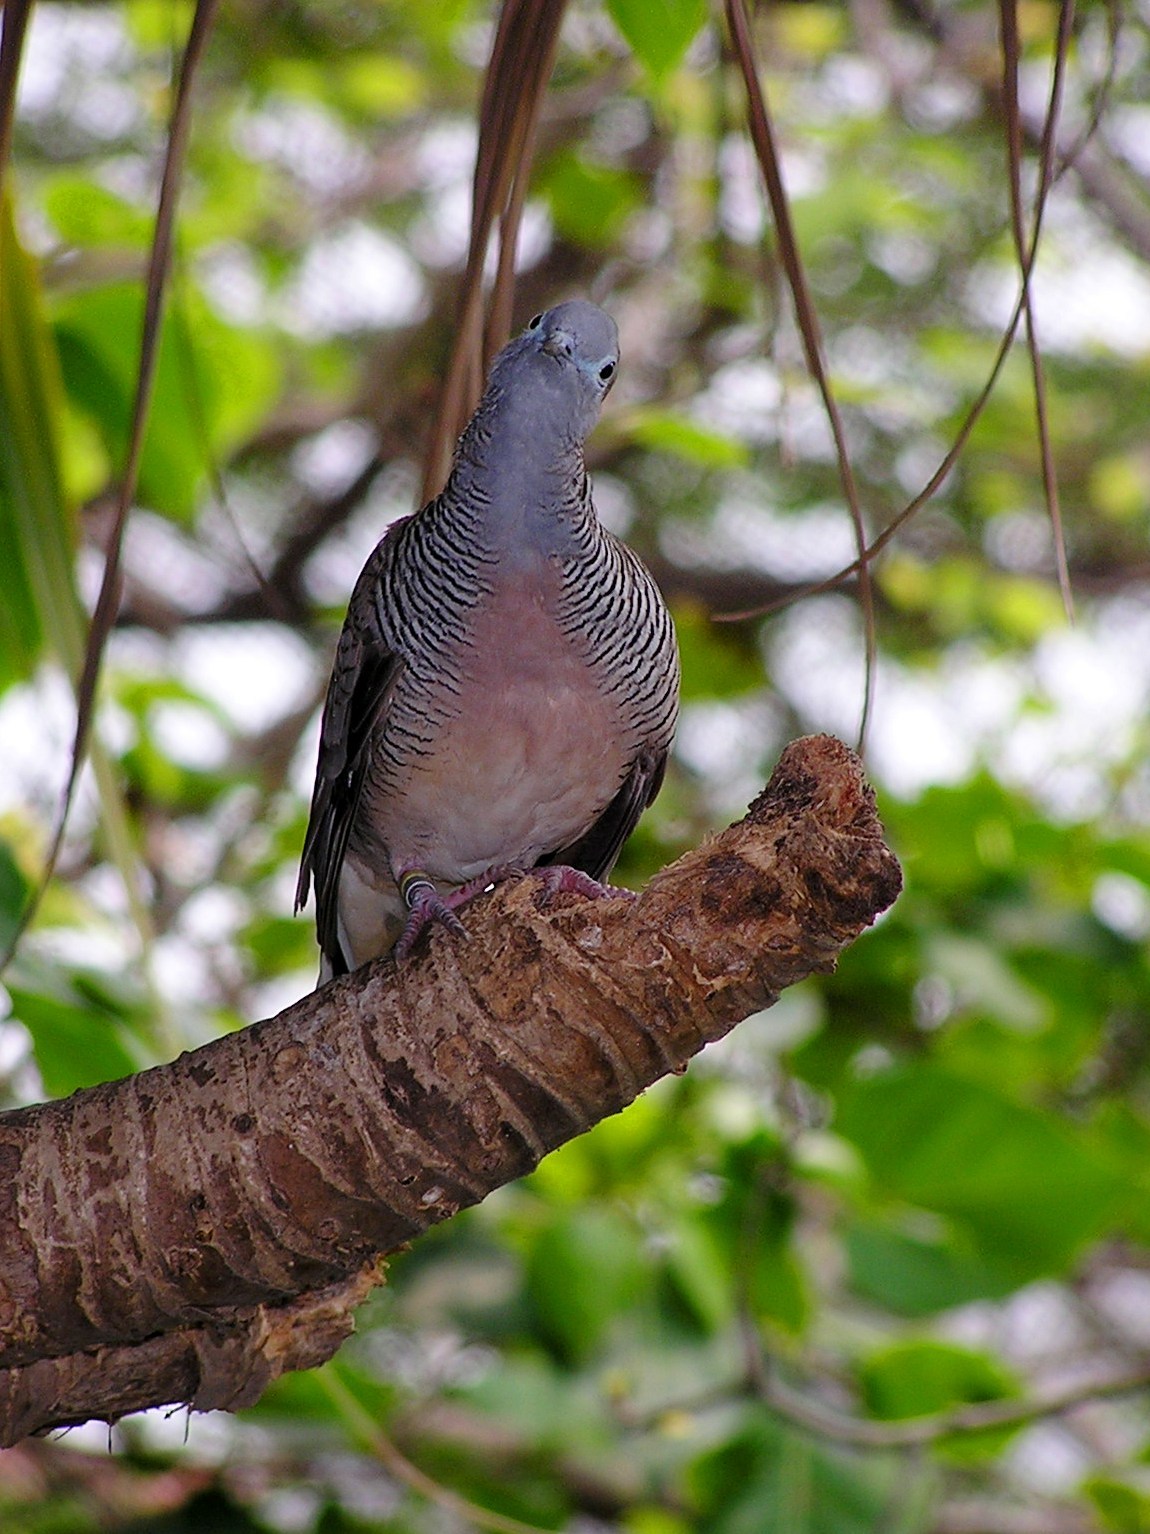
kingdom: Animalia
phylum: Chordata
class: Aves
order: Columbiformes
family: Columbidae
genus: Geopelia
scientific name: Geopelia striata
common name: Zebra dove
